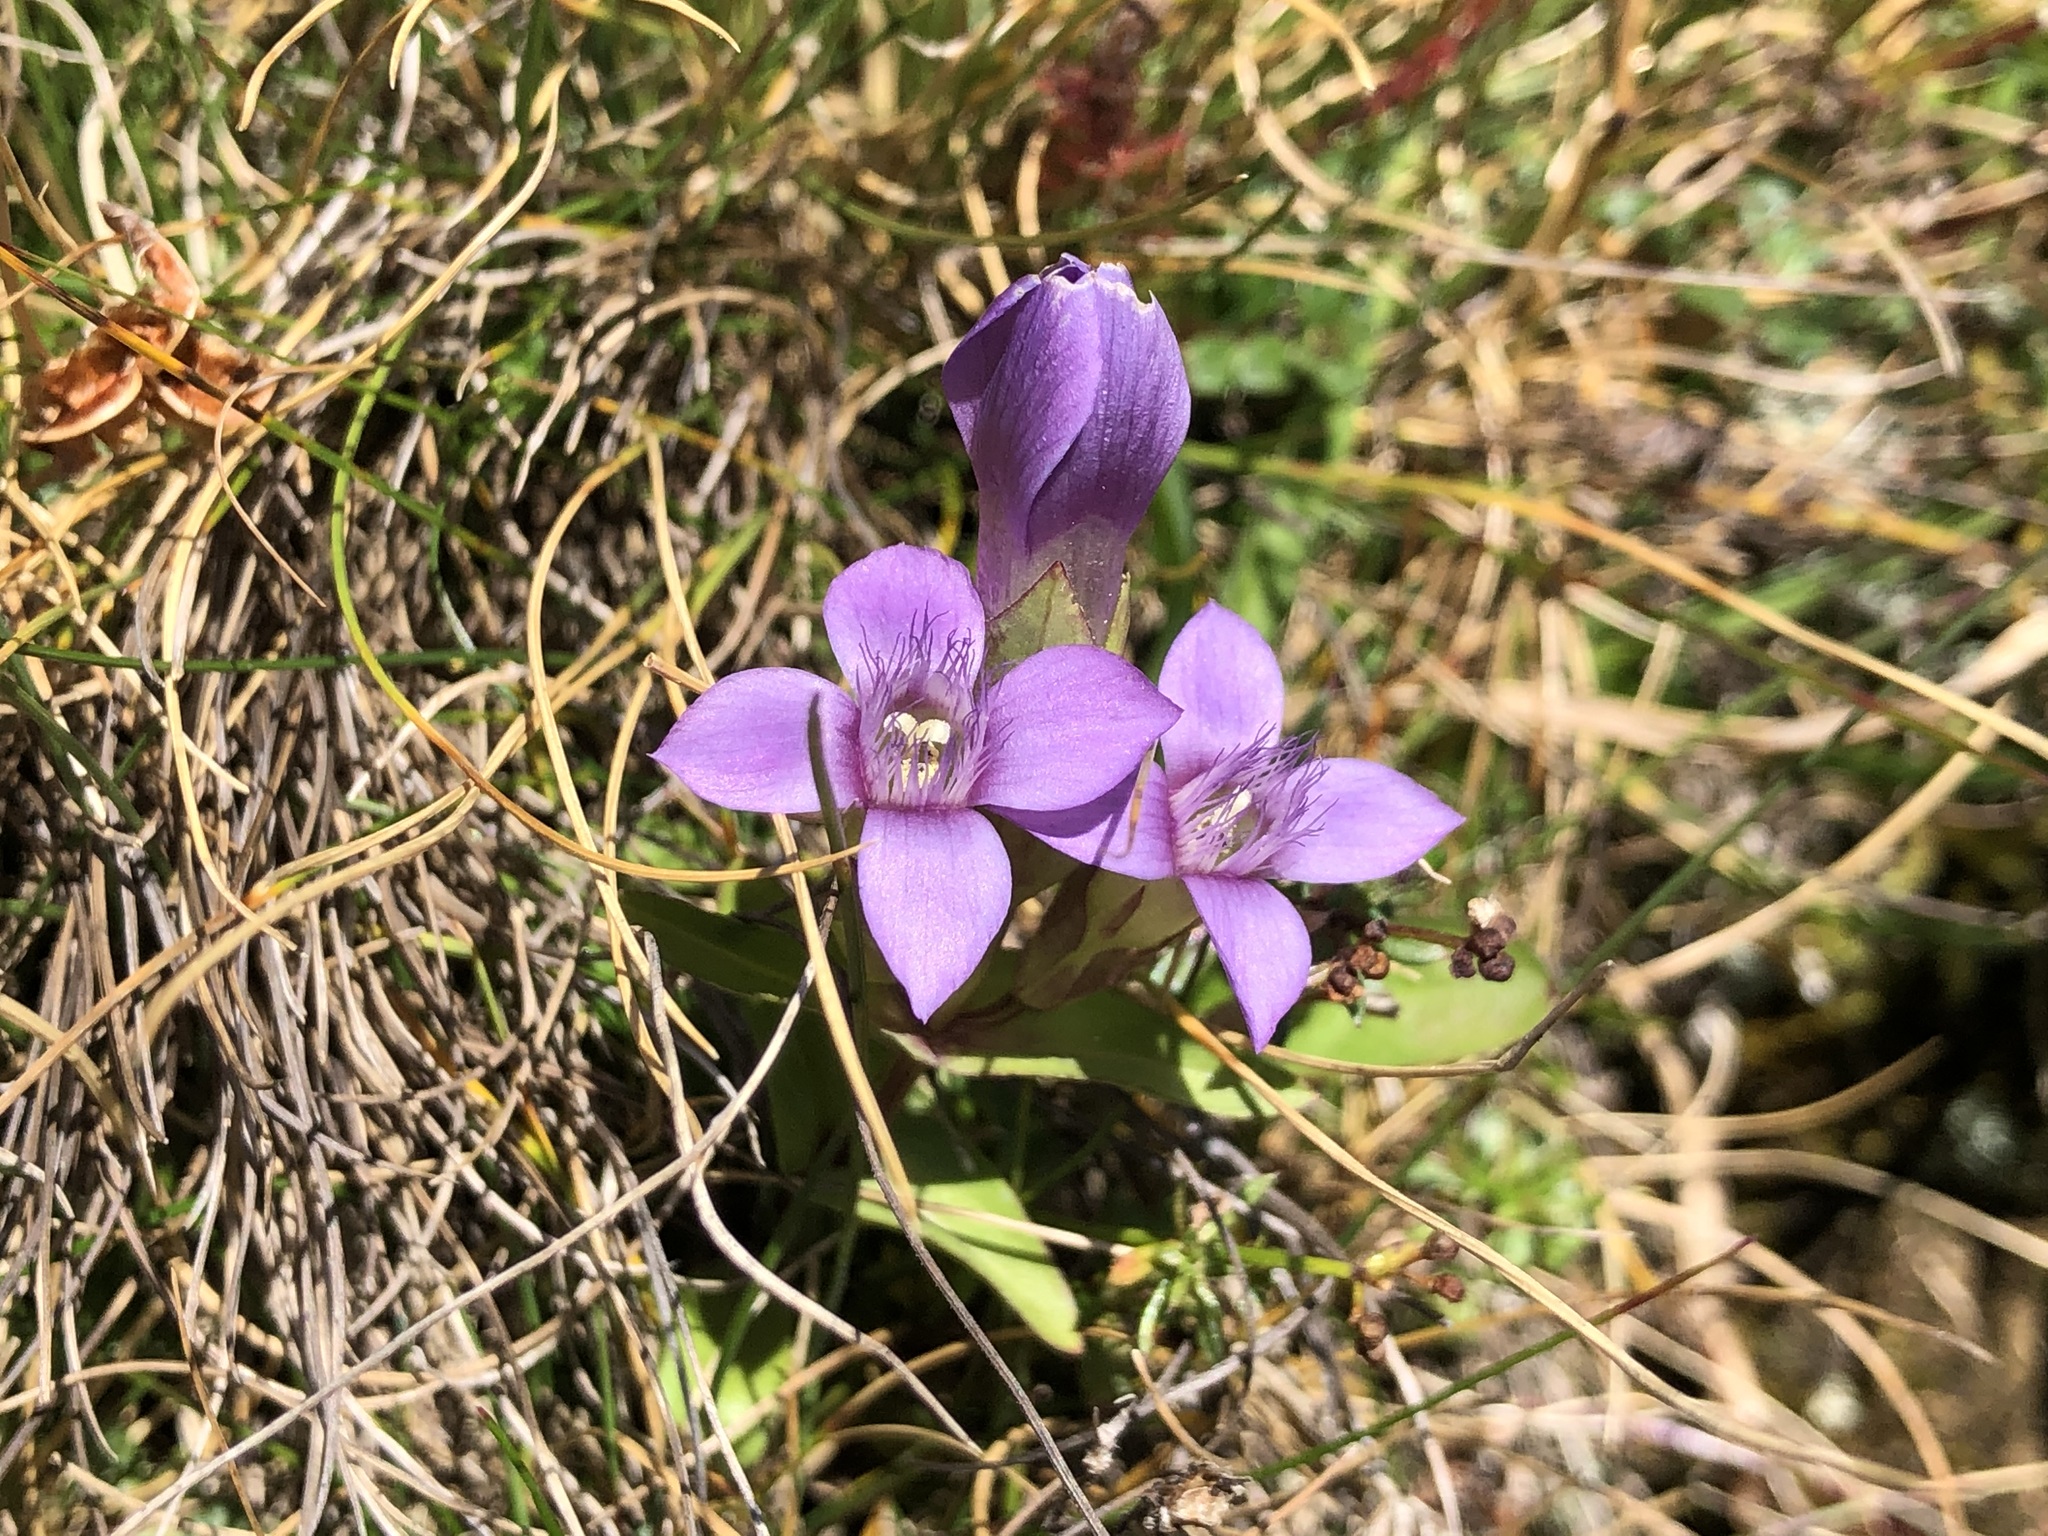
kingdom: Plantae
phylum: Tracheophyta
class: Magnoliopsida
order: Gentianales
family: Gentianaceae
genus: Gentianella
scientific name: Gentianella campestris
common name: Field gentian
